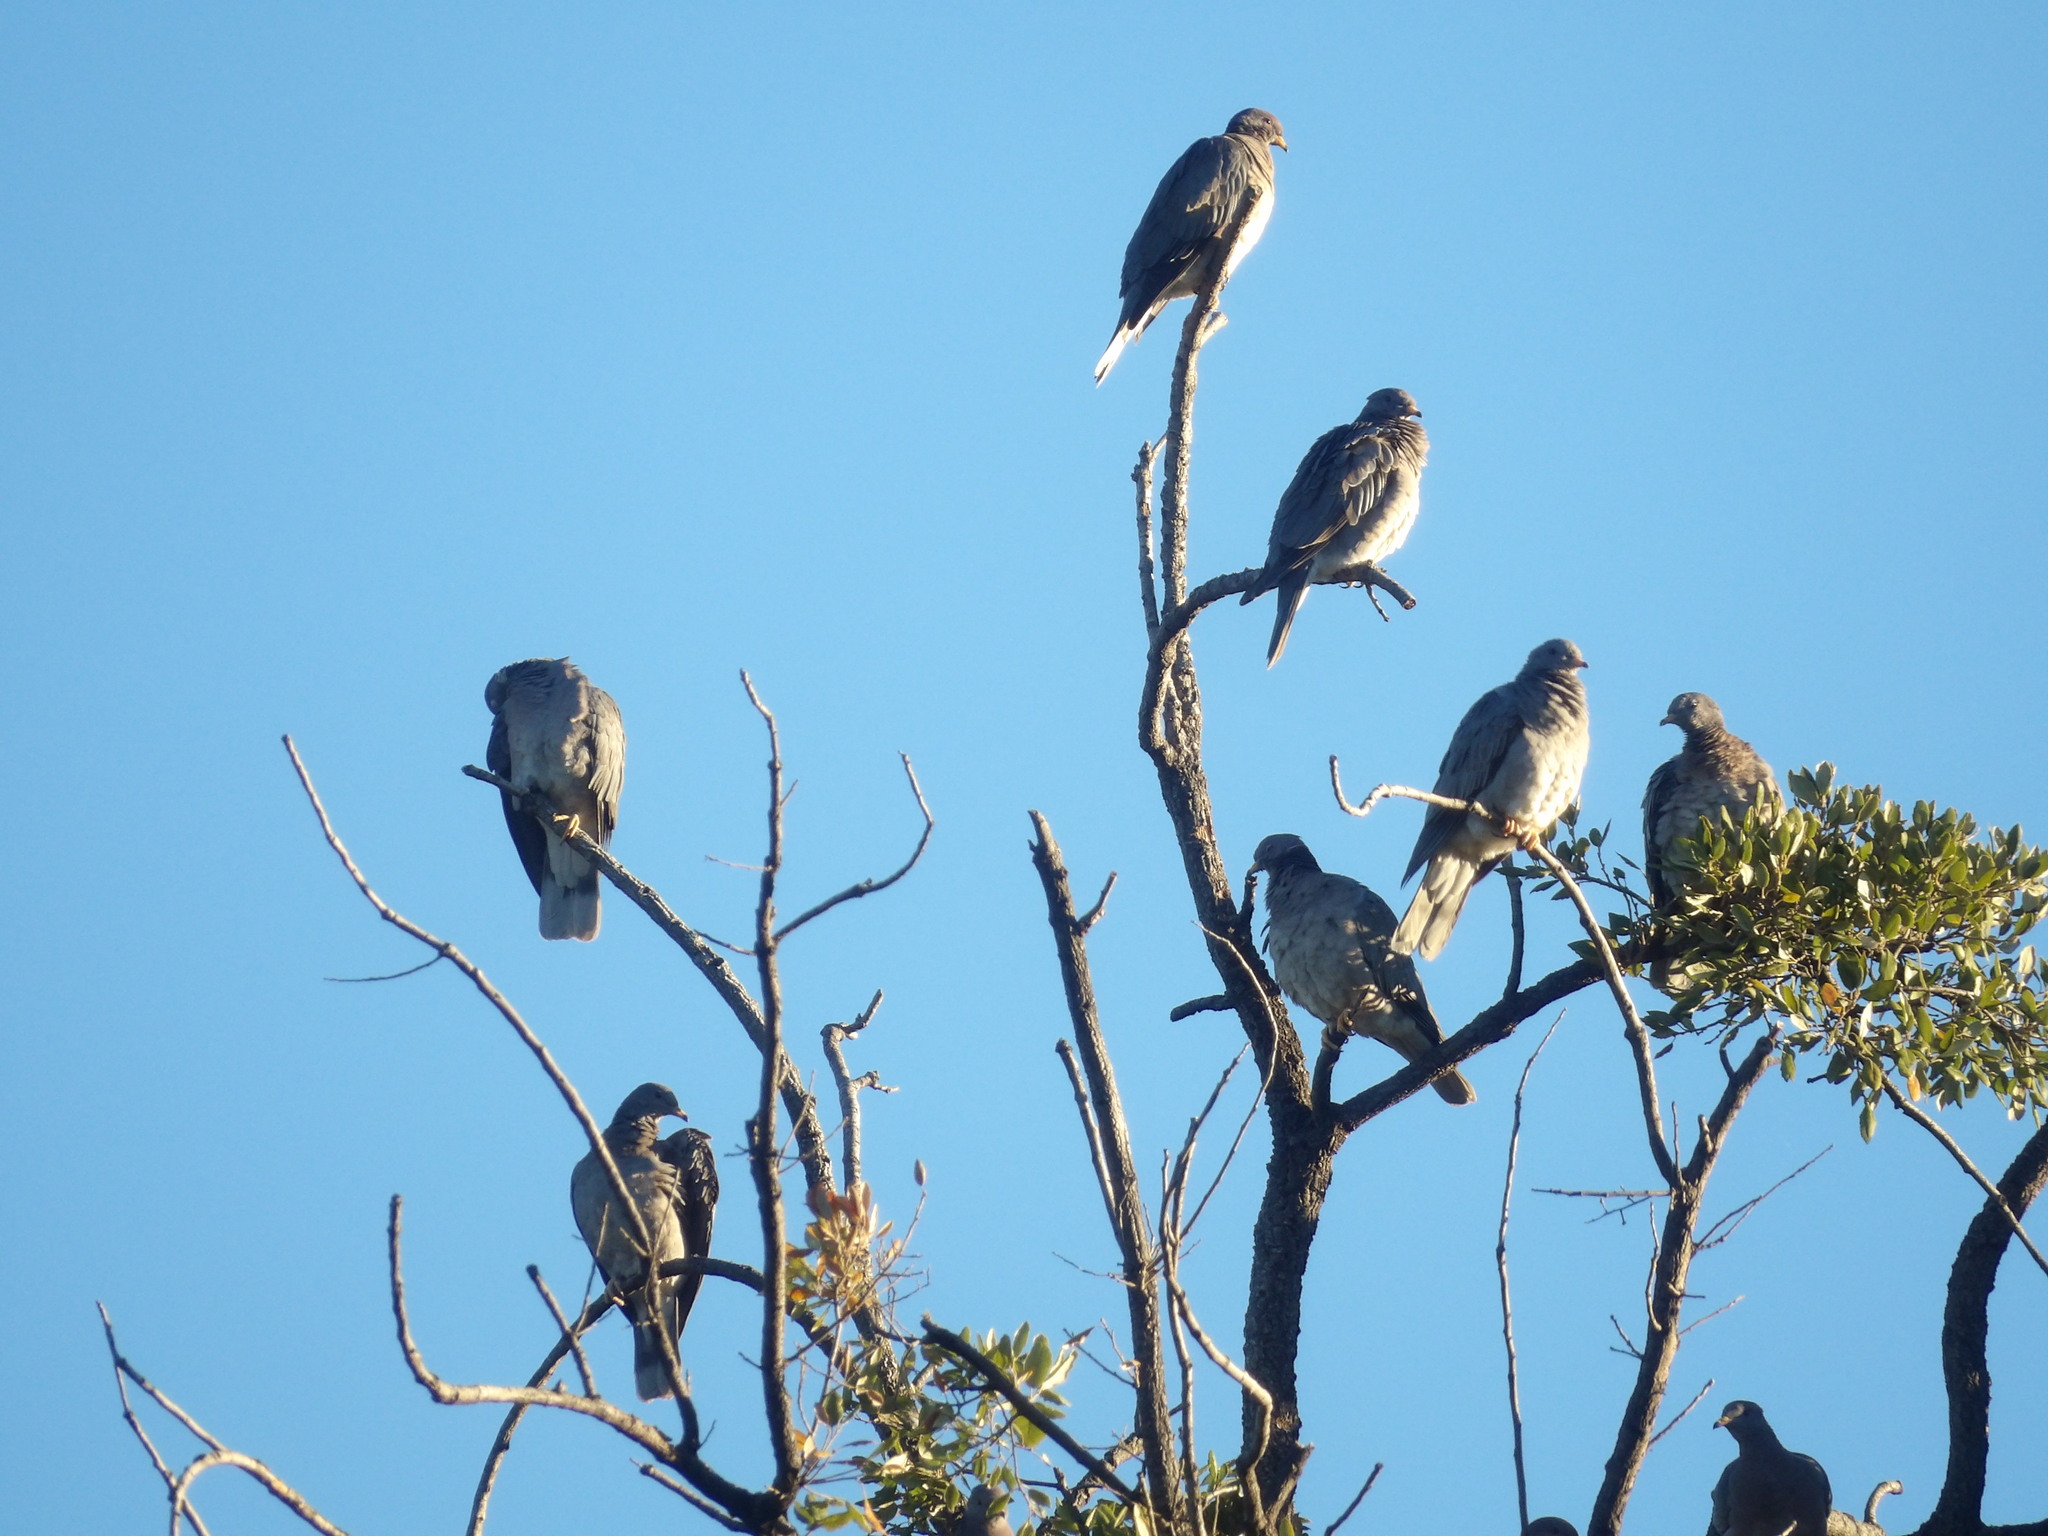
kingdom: Animalia
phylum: Chordata
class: Aves
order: Columbiformes
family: Columbidae
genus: Patagioenas
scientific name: Patagioenas fasciata
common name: Band-tailed pigeon
